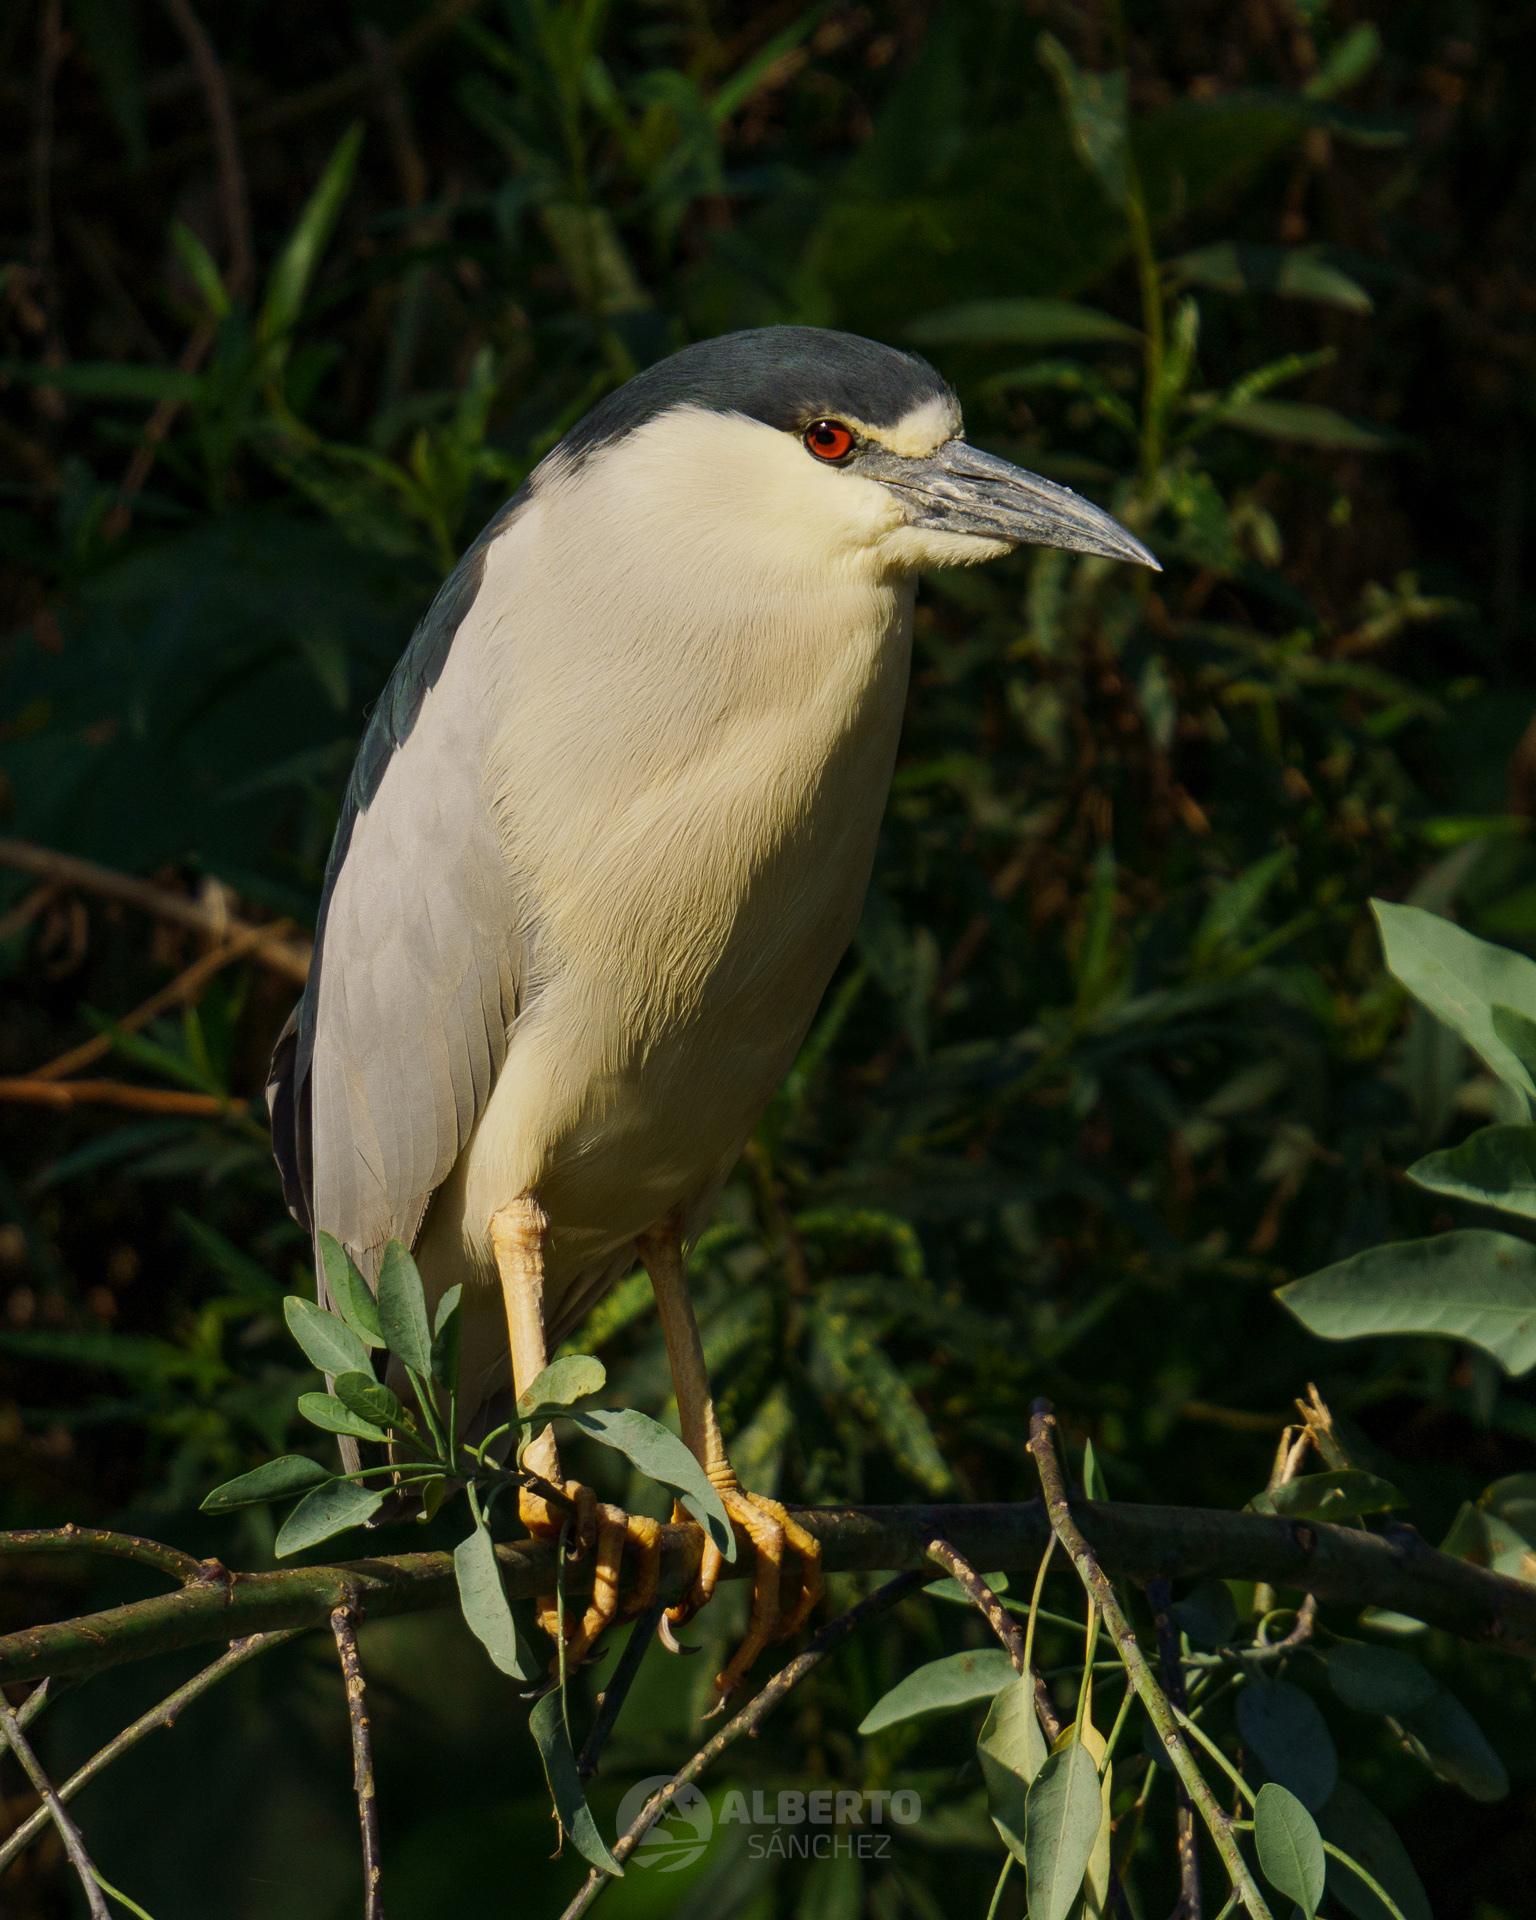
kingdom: Animalia
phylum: Chordata
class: Aves
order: Pelecaniformes
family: Ardeidae
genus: Nycticorax
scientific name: Nycticorax nycticorax
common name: Black-crowned night heron
